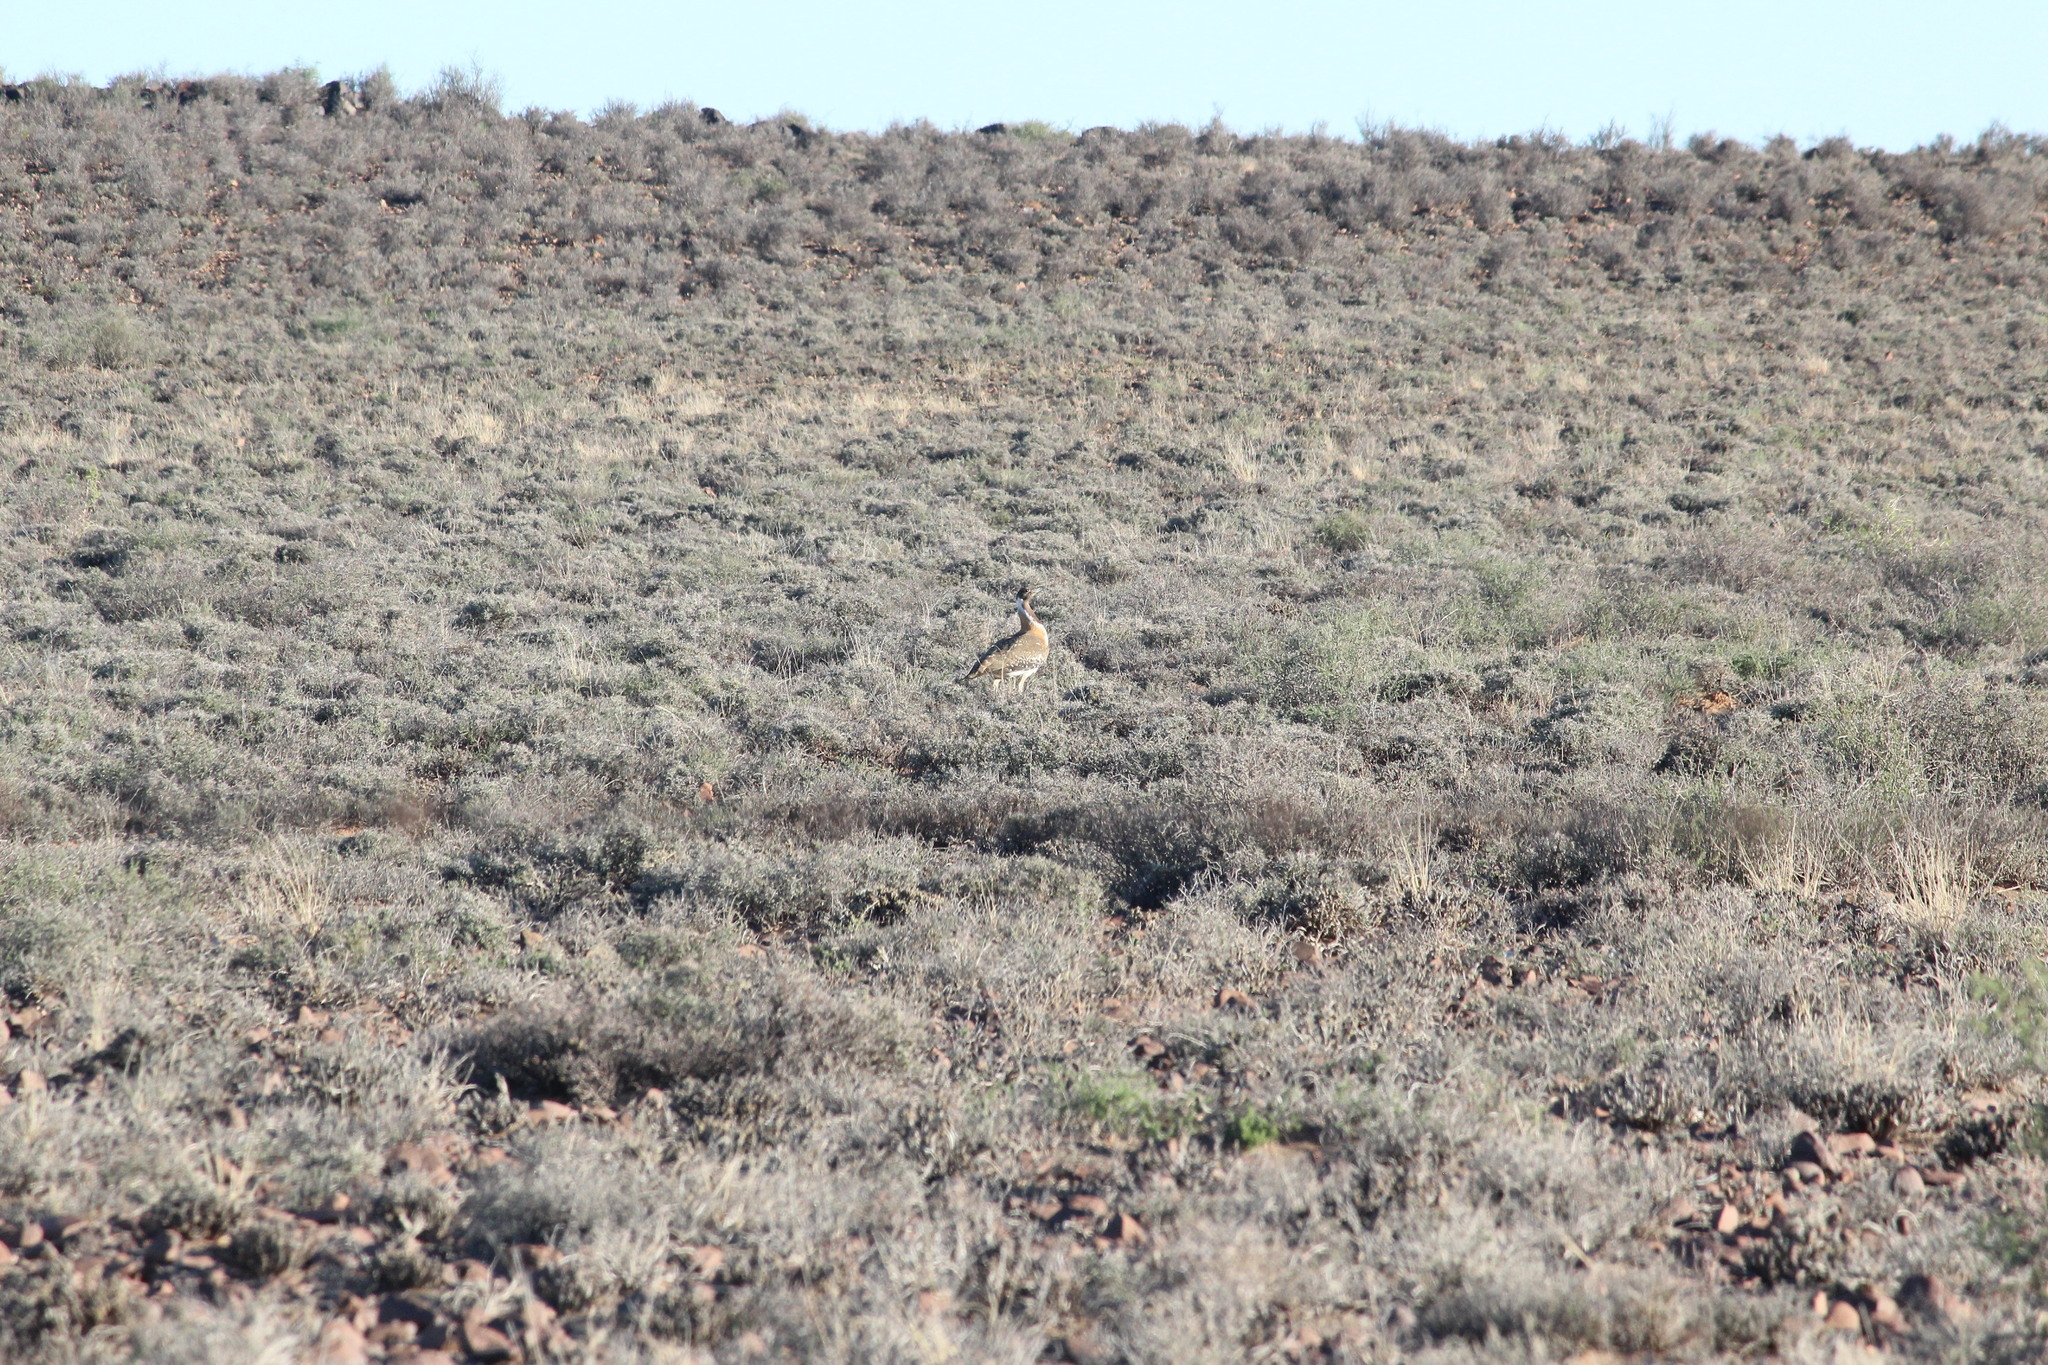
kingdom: Animalia
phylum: Chordata
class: Aves
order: Otidiformes
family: Otididae
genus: Neotis
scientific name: Neotis ludwigii
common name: Ludwig's bustard
